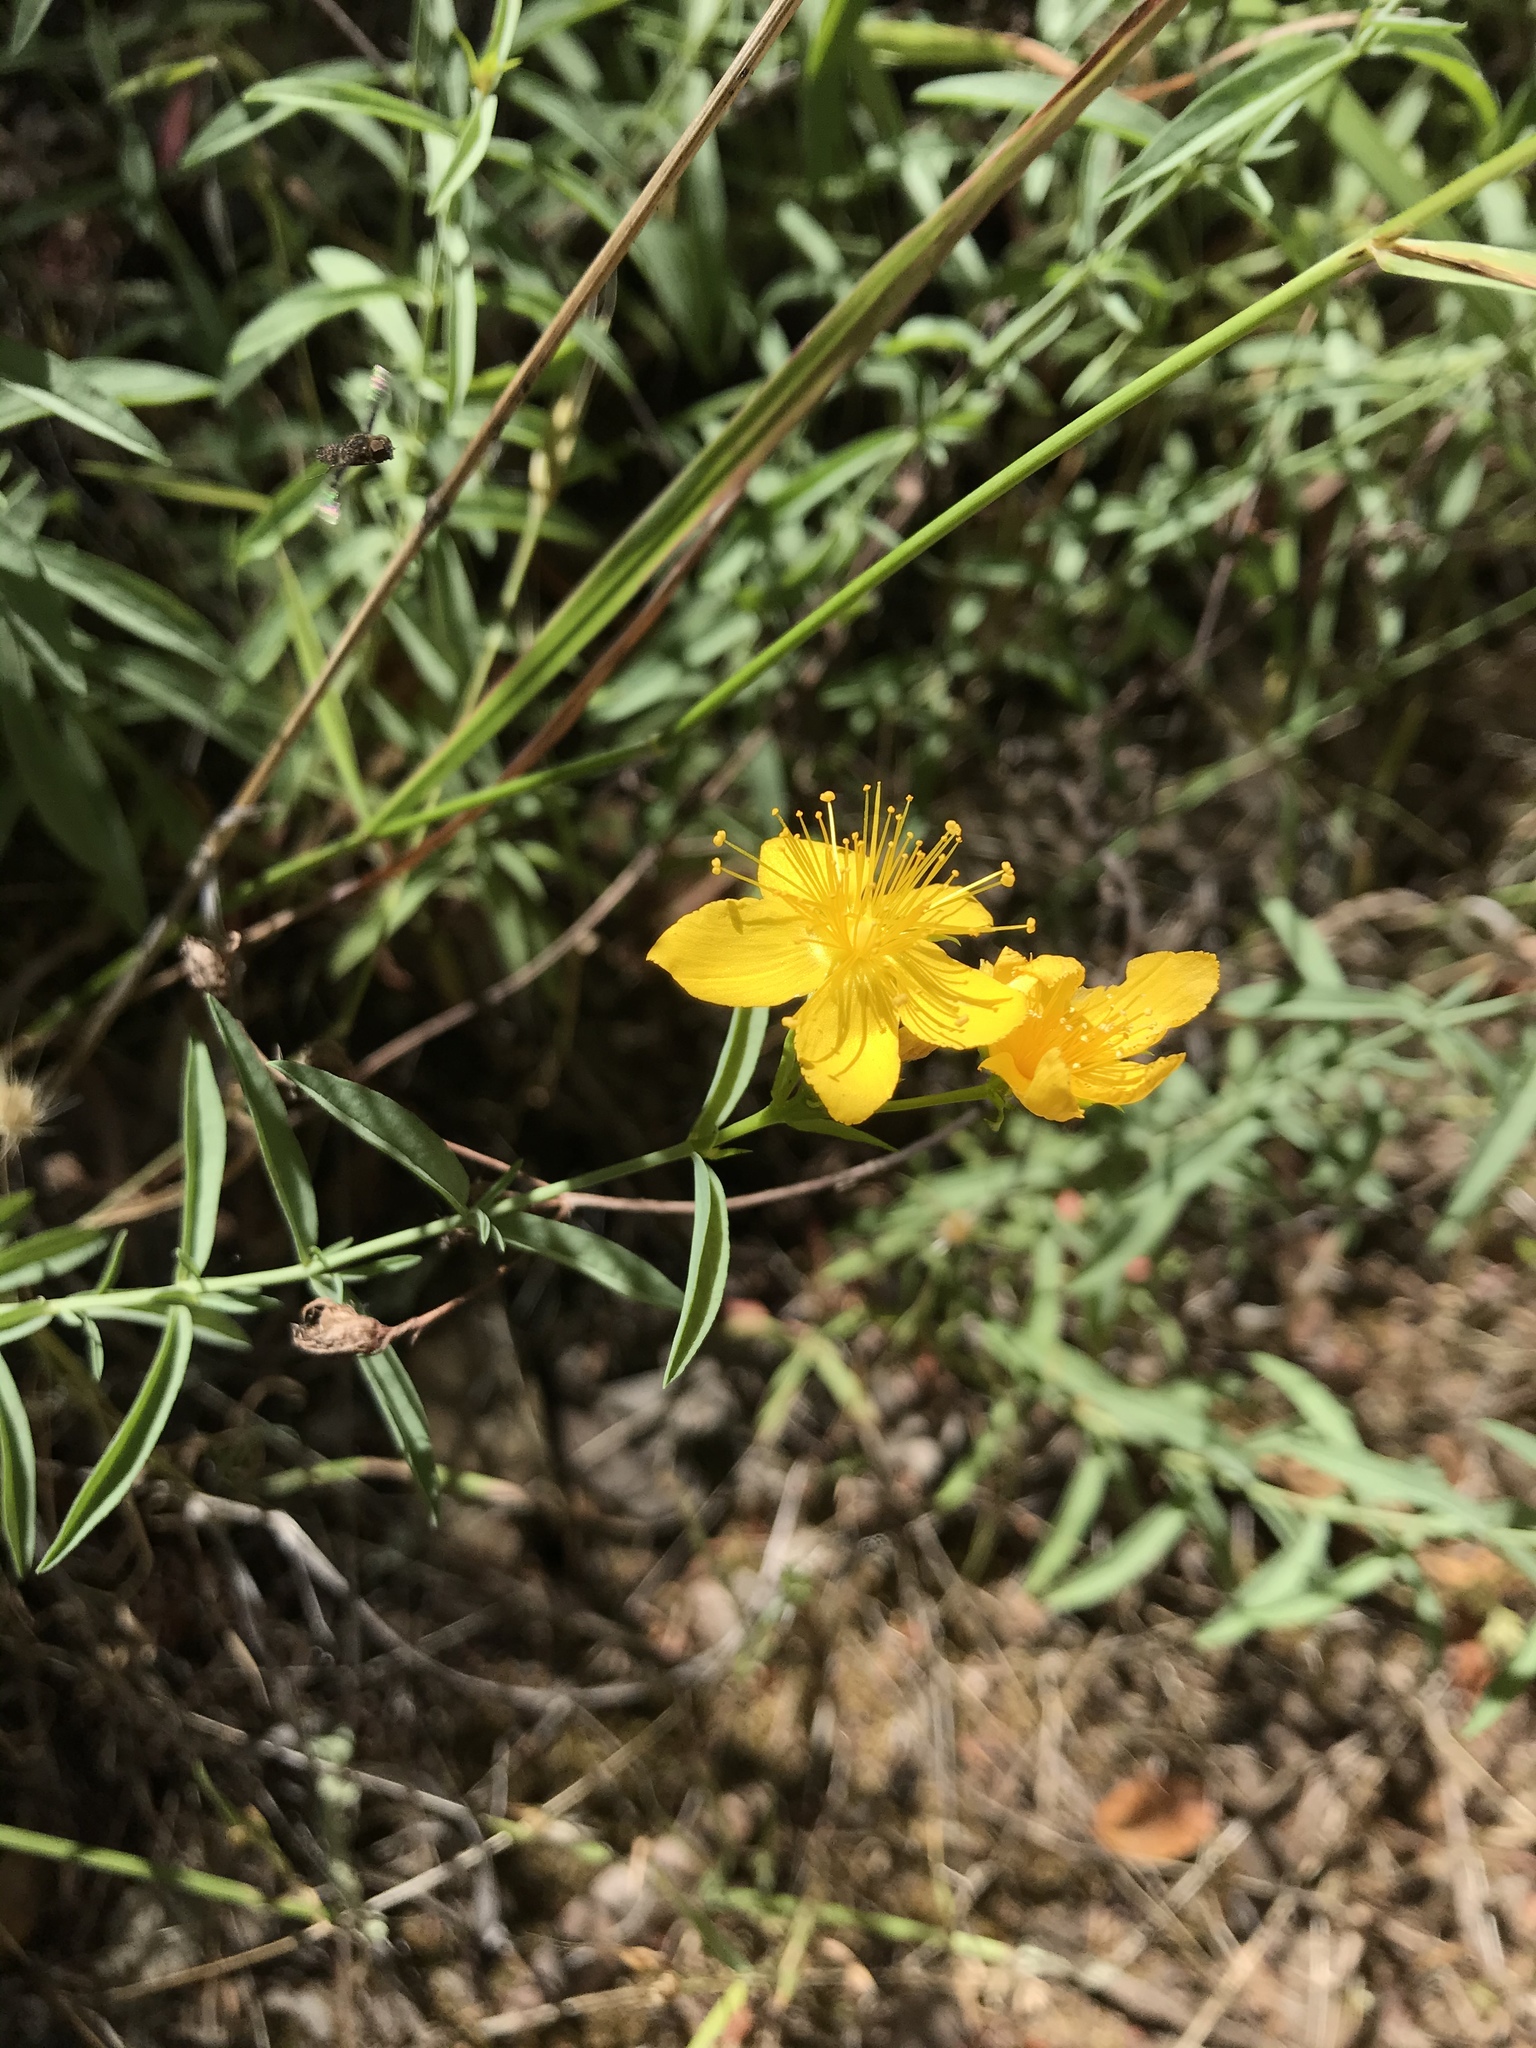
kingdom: Plantae
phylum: Tracheophyta
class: Magnoliopsida
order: Malpighiales
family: Hypericaceae
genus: Hypericum
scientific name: Hypericum concinnum
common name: Gold-wire
